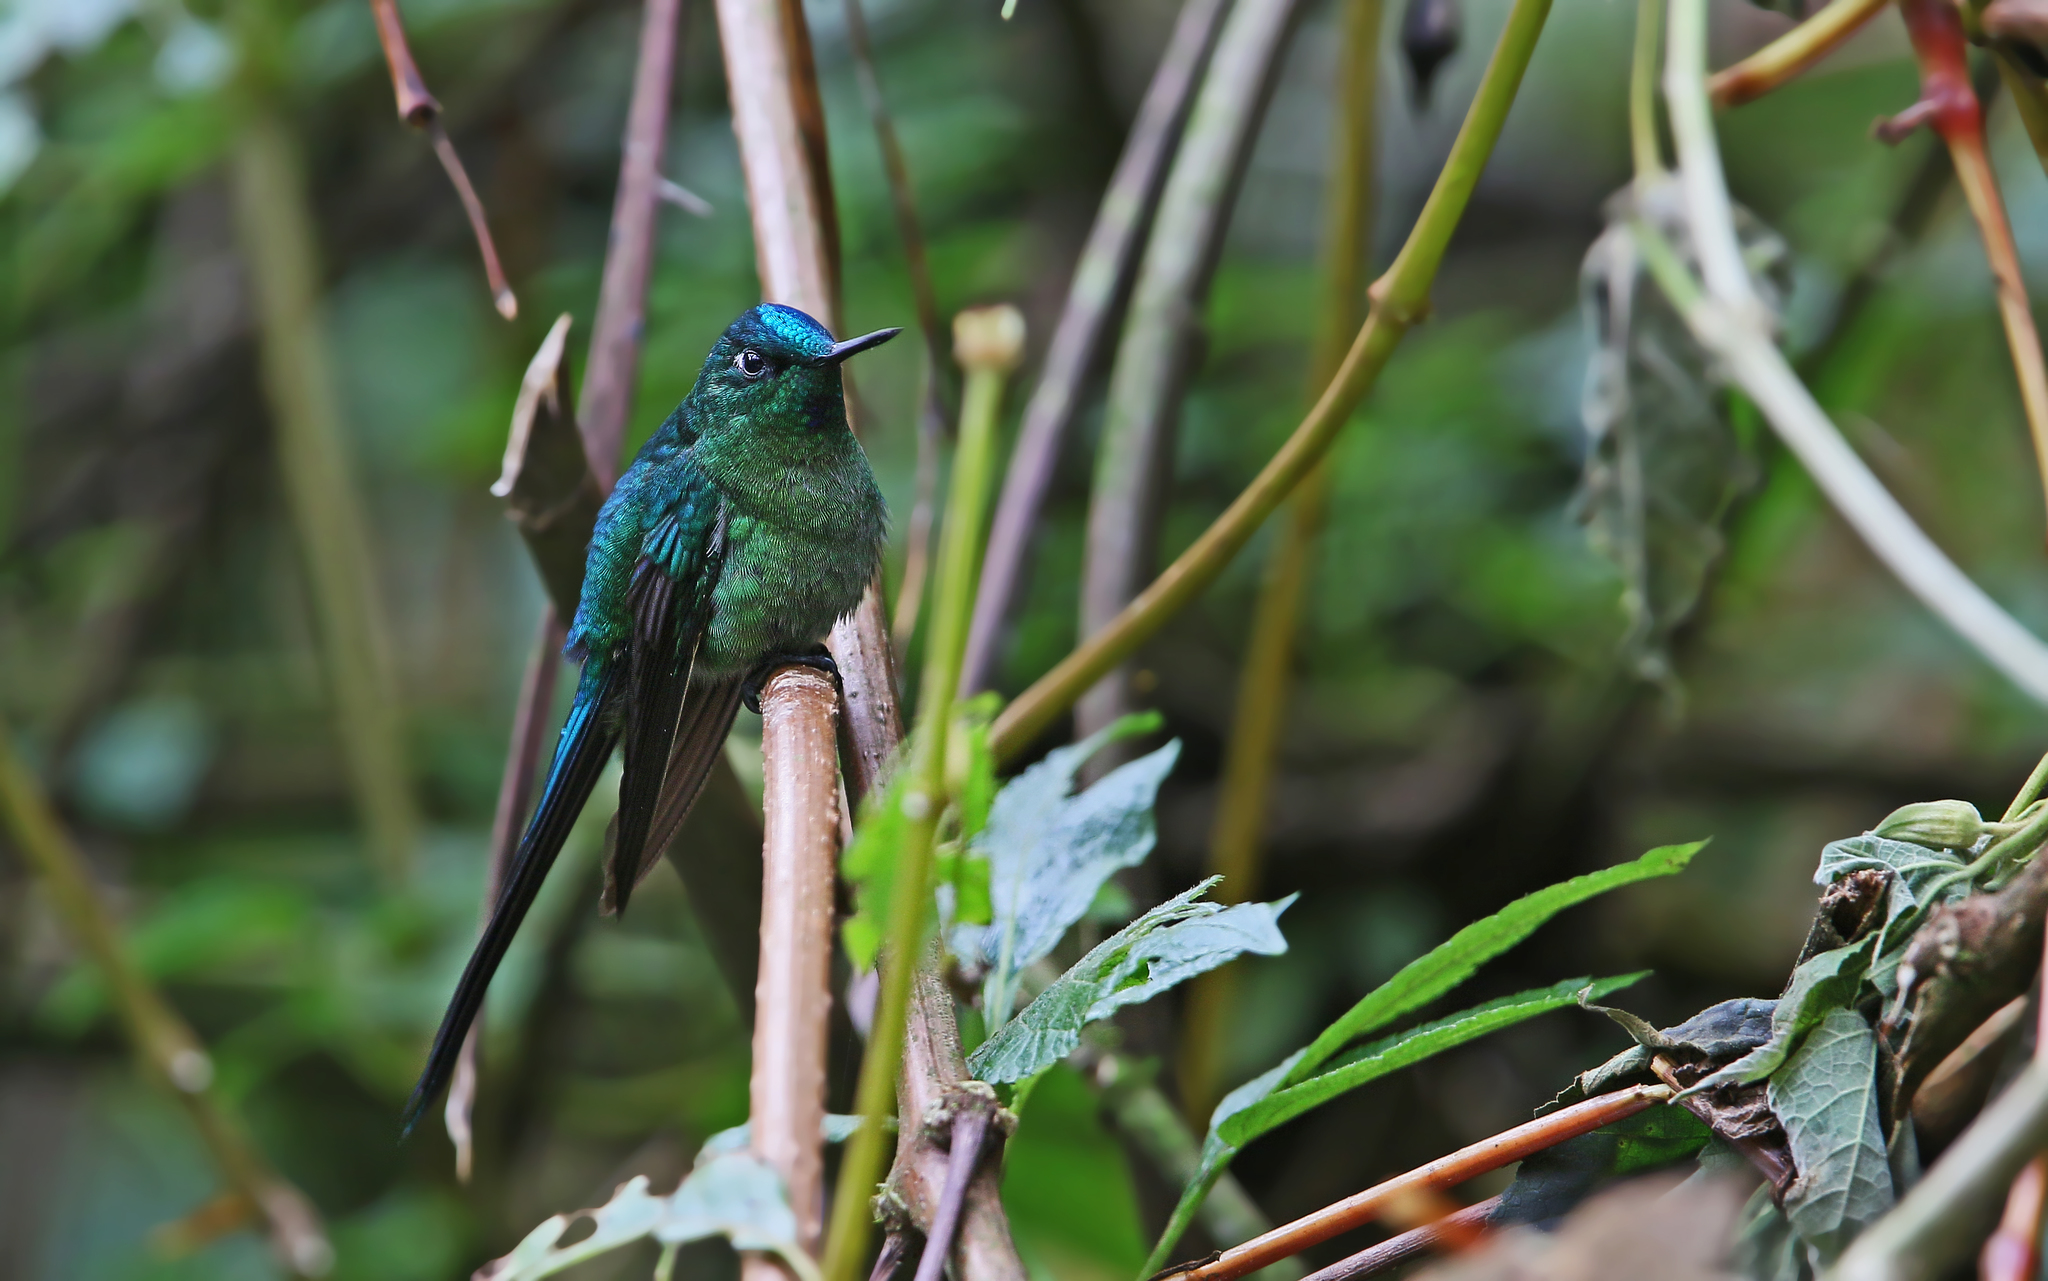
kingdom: Animalia
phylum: Chordata
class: Aves
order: Apodiformes
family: Trochilidae
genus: Aglaiocercus
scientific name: Aglaiocercus kingii
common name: Long-tailed sylph
